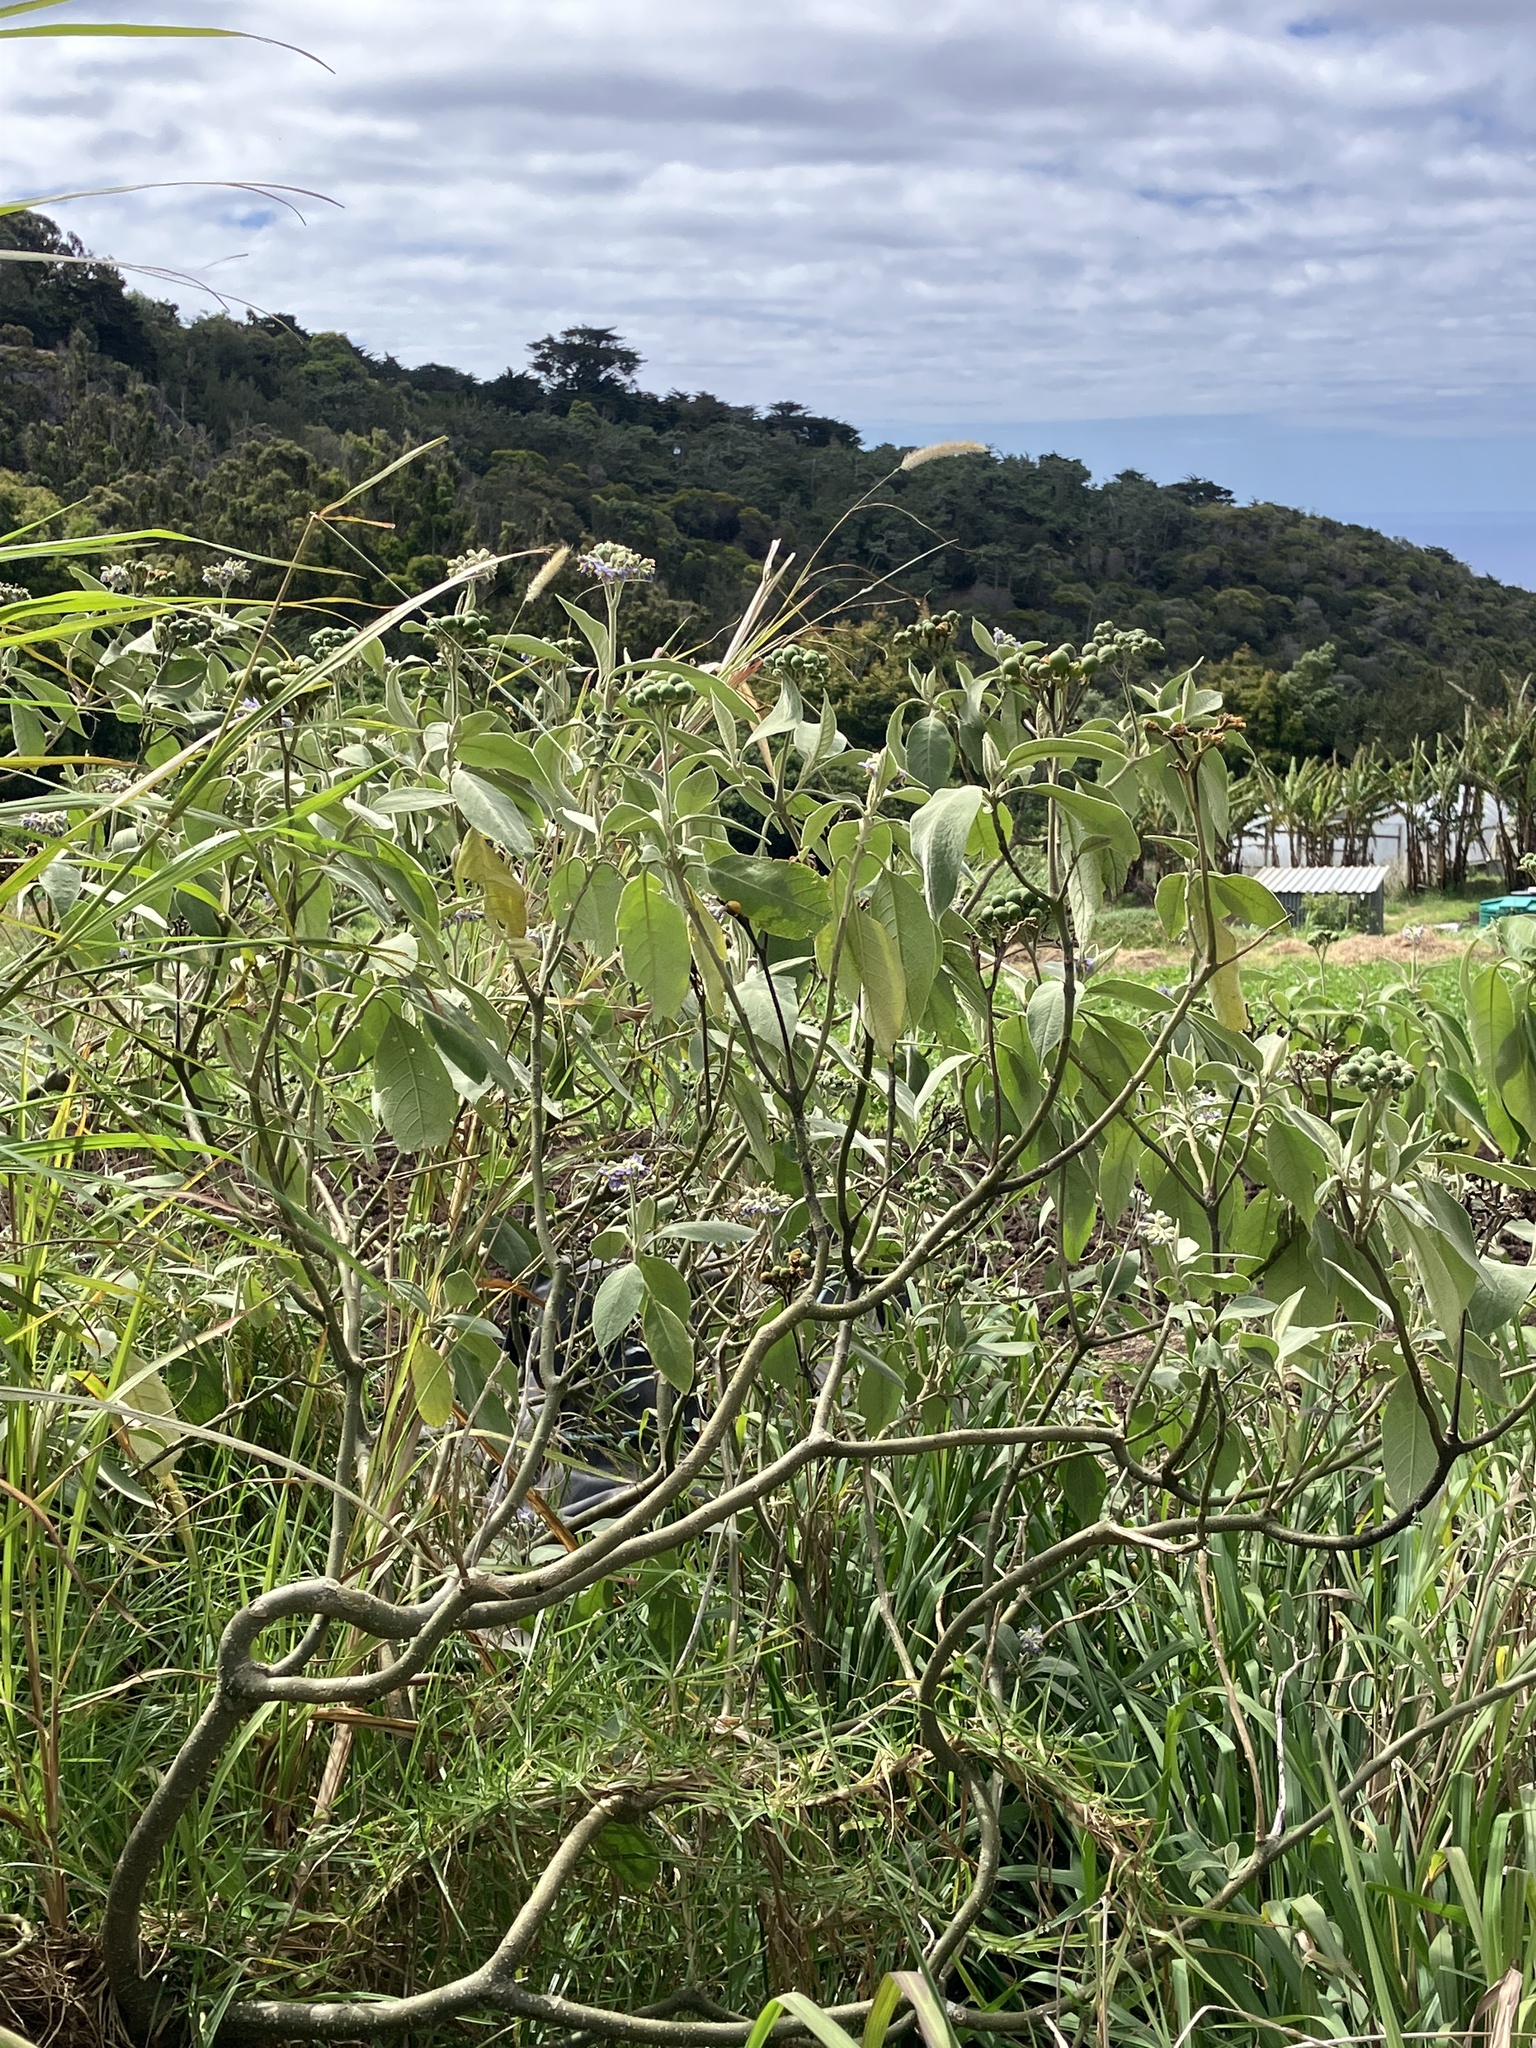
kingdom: Plantae
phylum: Tracheophyta
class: Magnoliopsida
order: Solanales
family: Solanaceae
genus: Solanum
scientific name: Solanum mauritianum
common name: Earleaf nightshade
